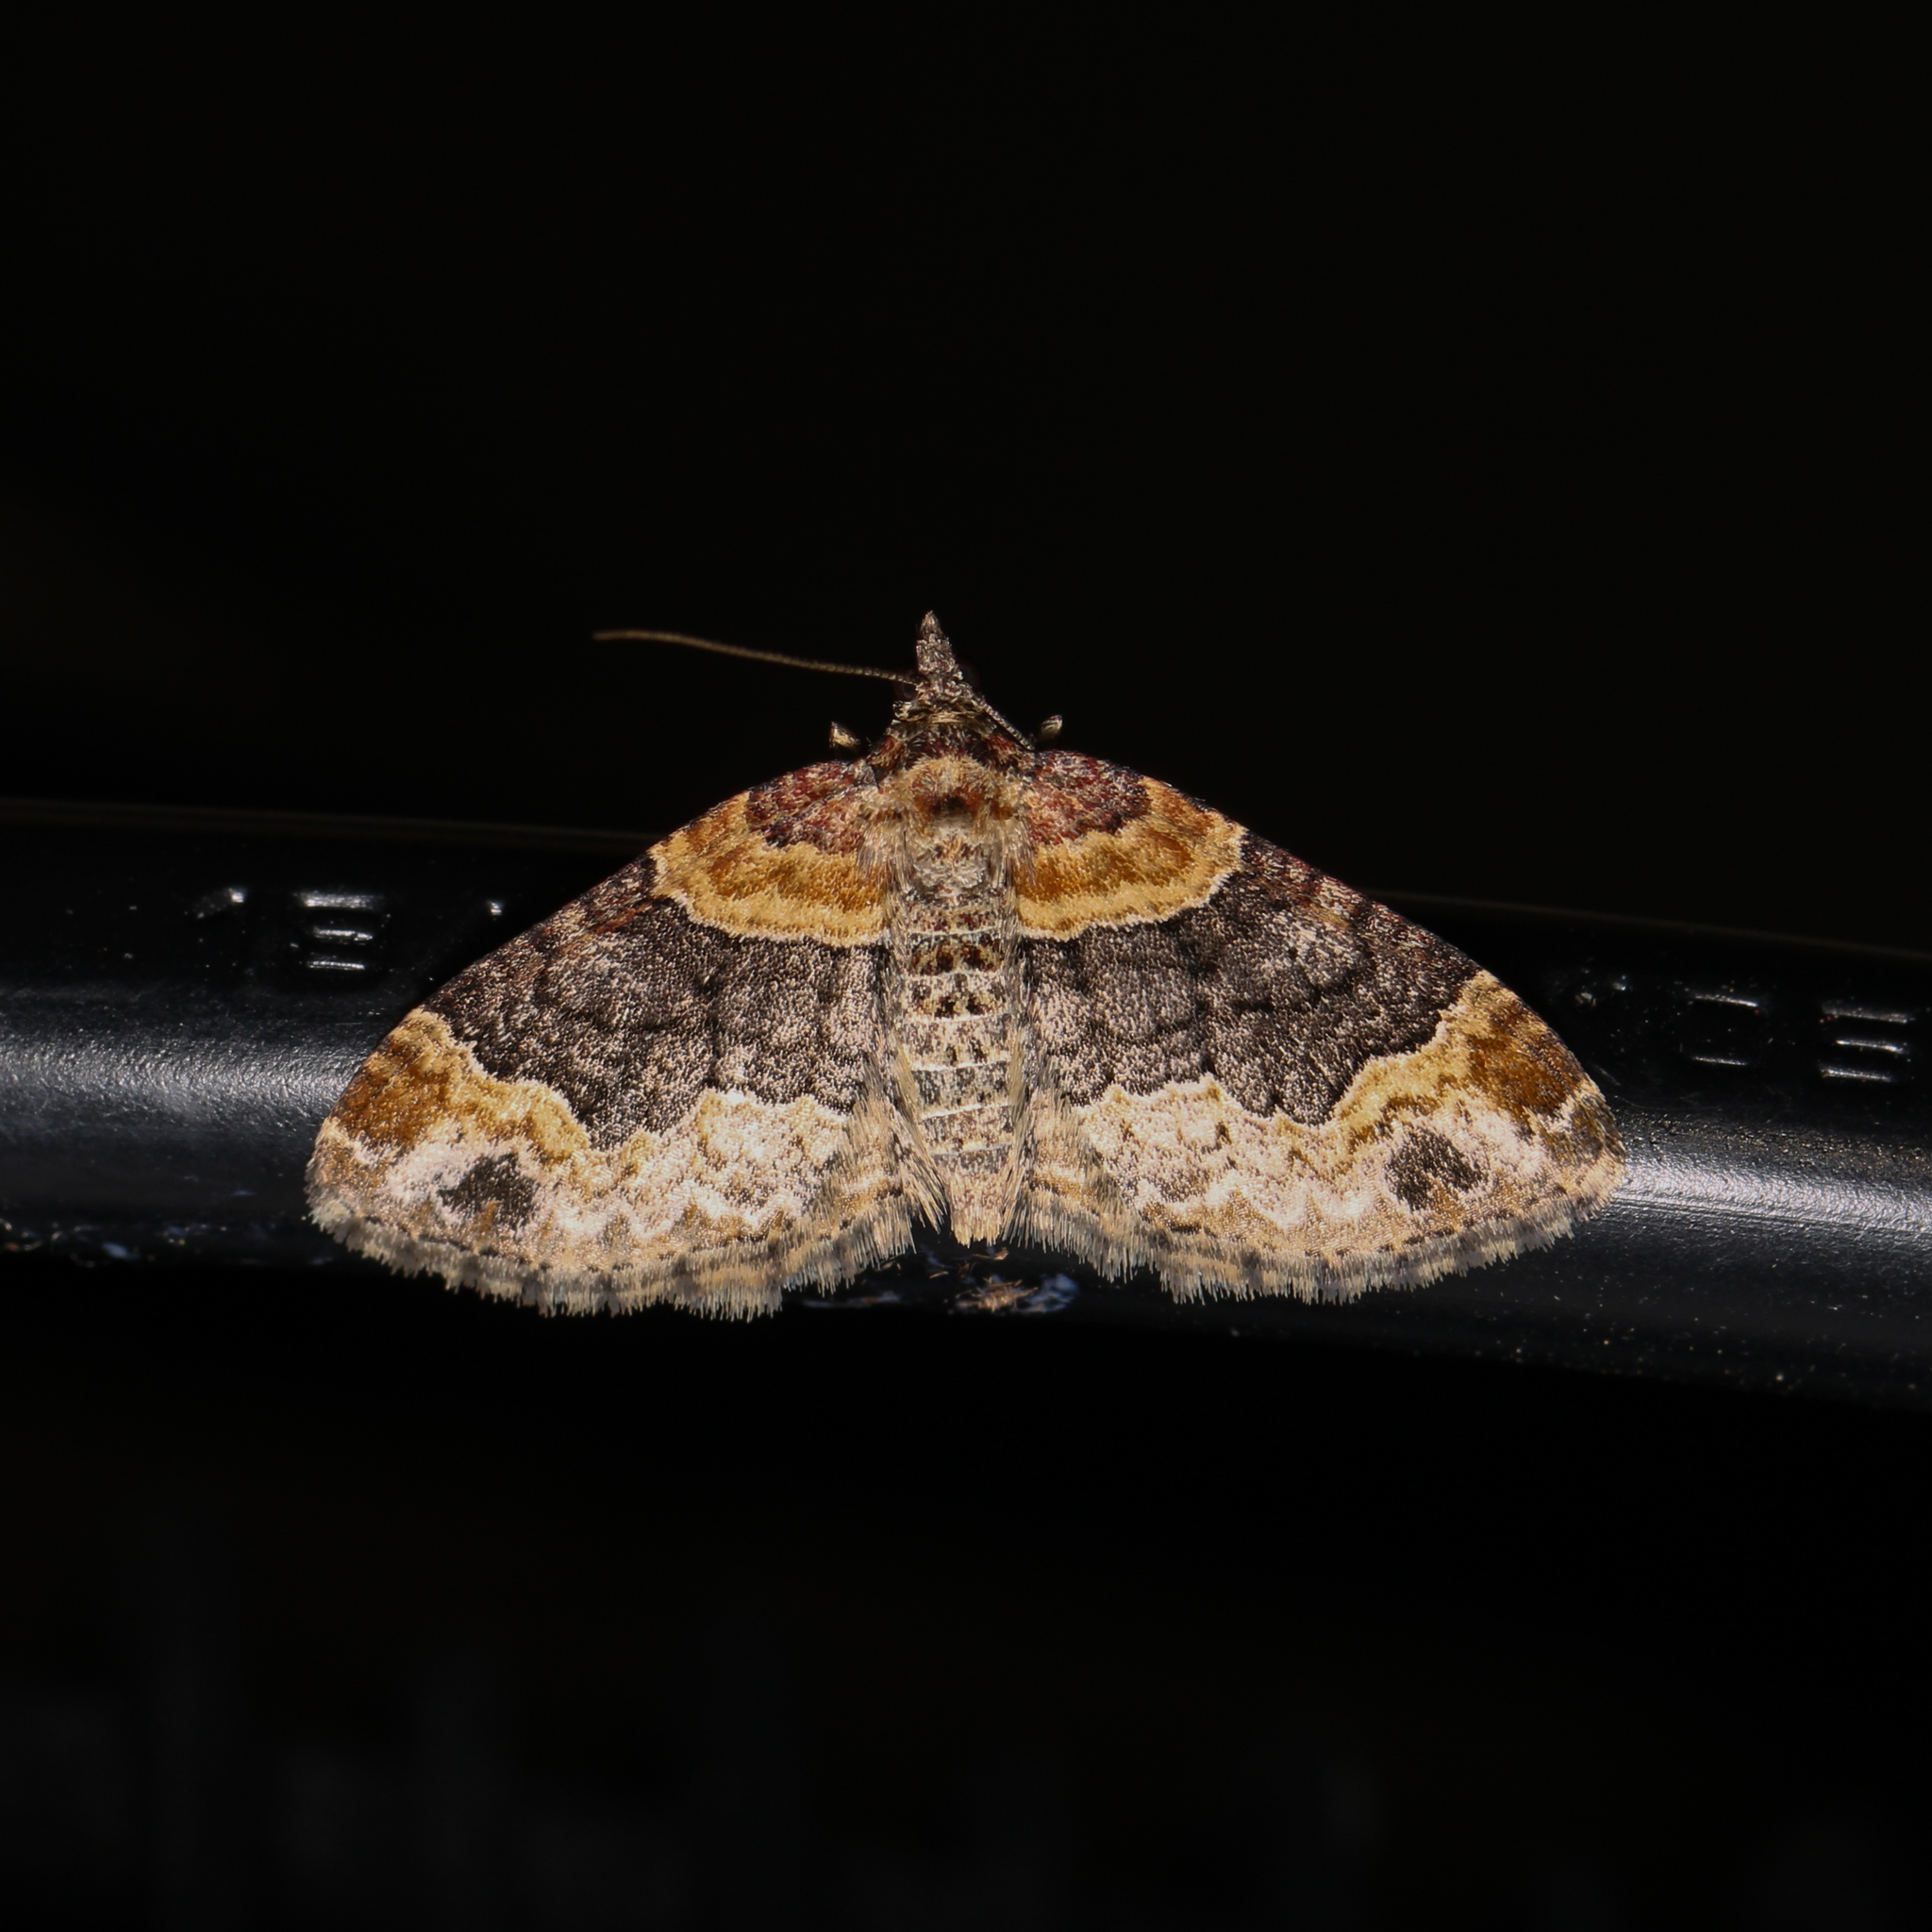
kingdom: Animalia
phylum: Arthropoda
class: Insecta
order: Lepidoptera
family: Geometridae
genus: Xanthorhoe
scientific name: Xanthorhoe ferrugata
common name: Dark-barred twin-spot carpet
